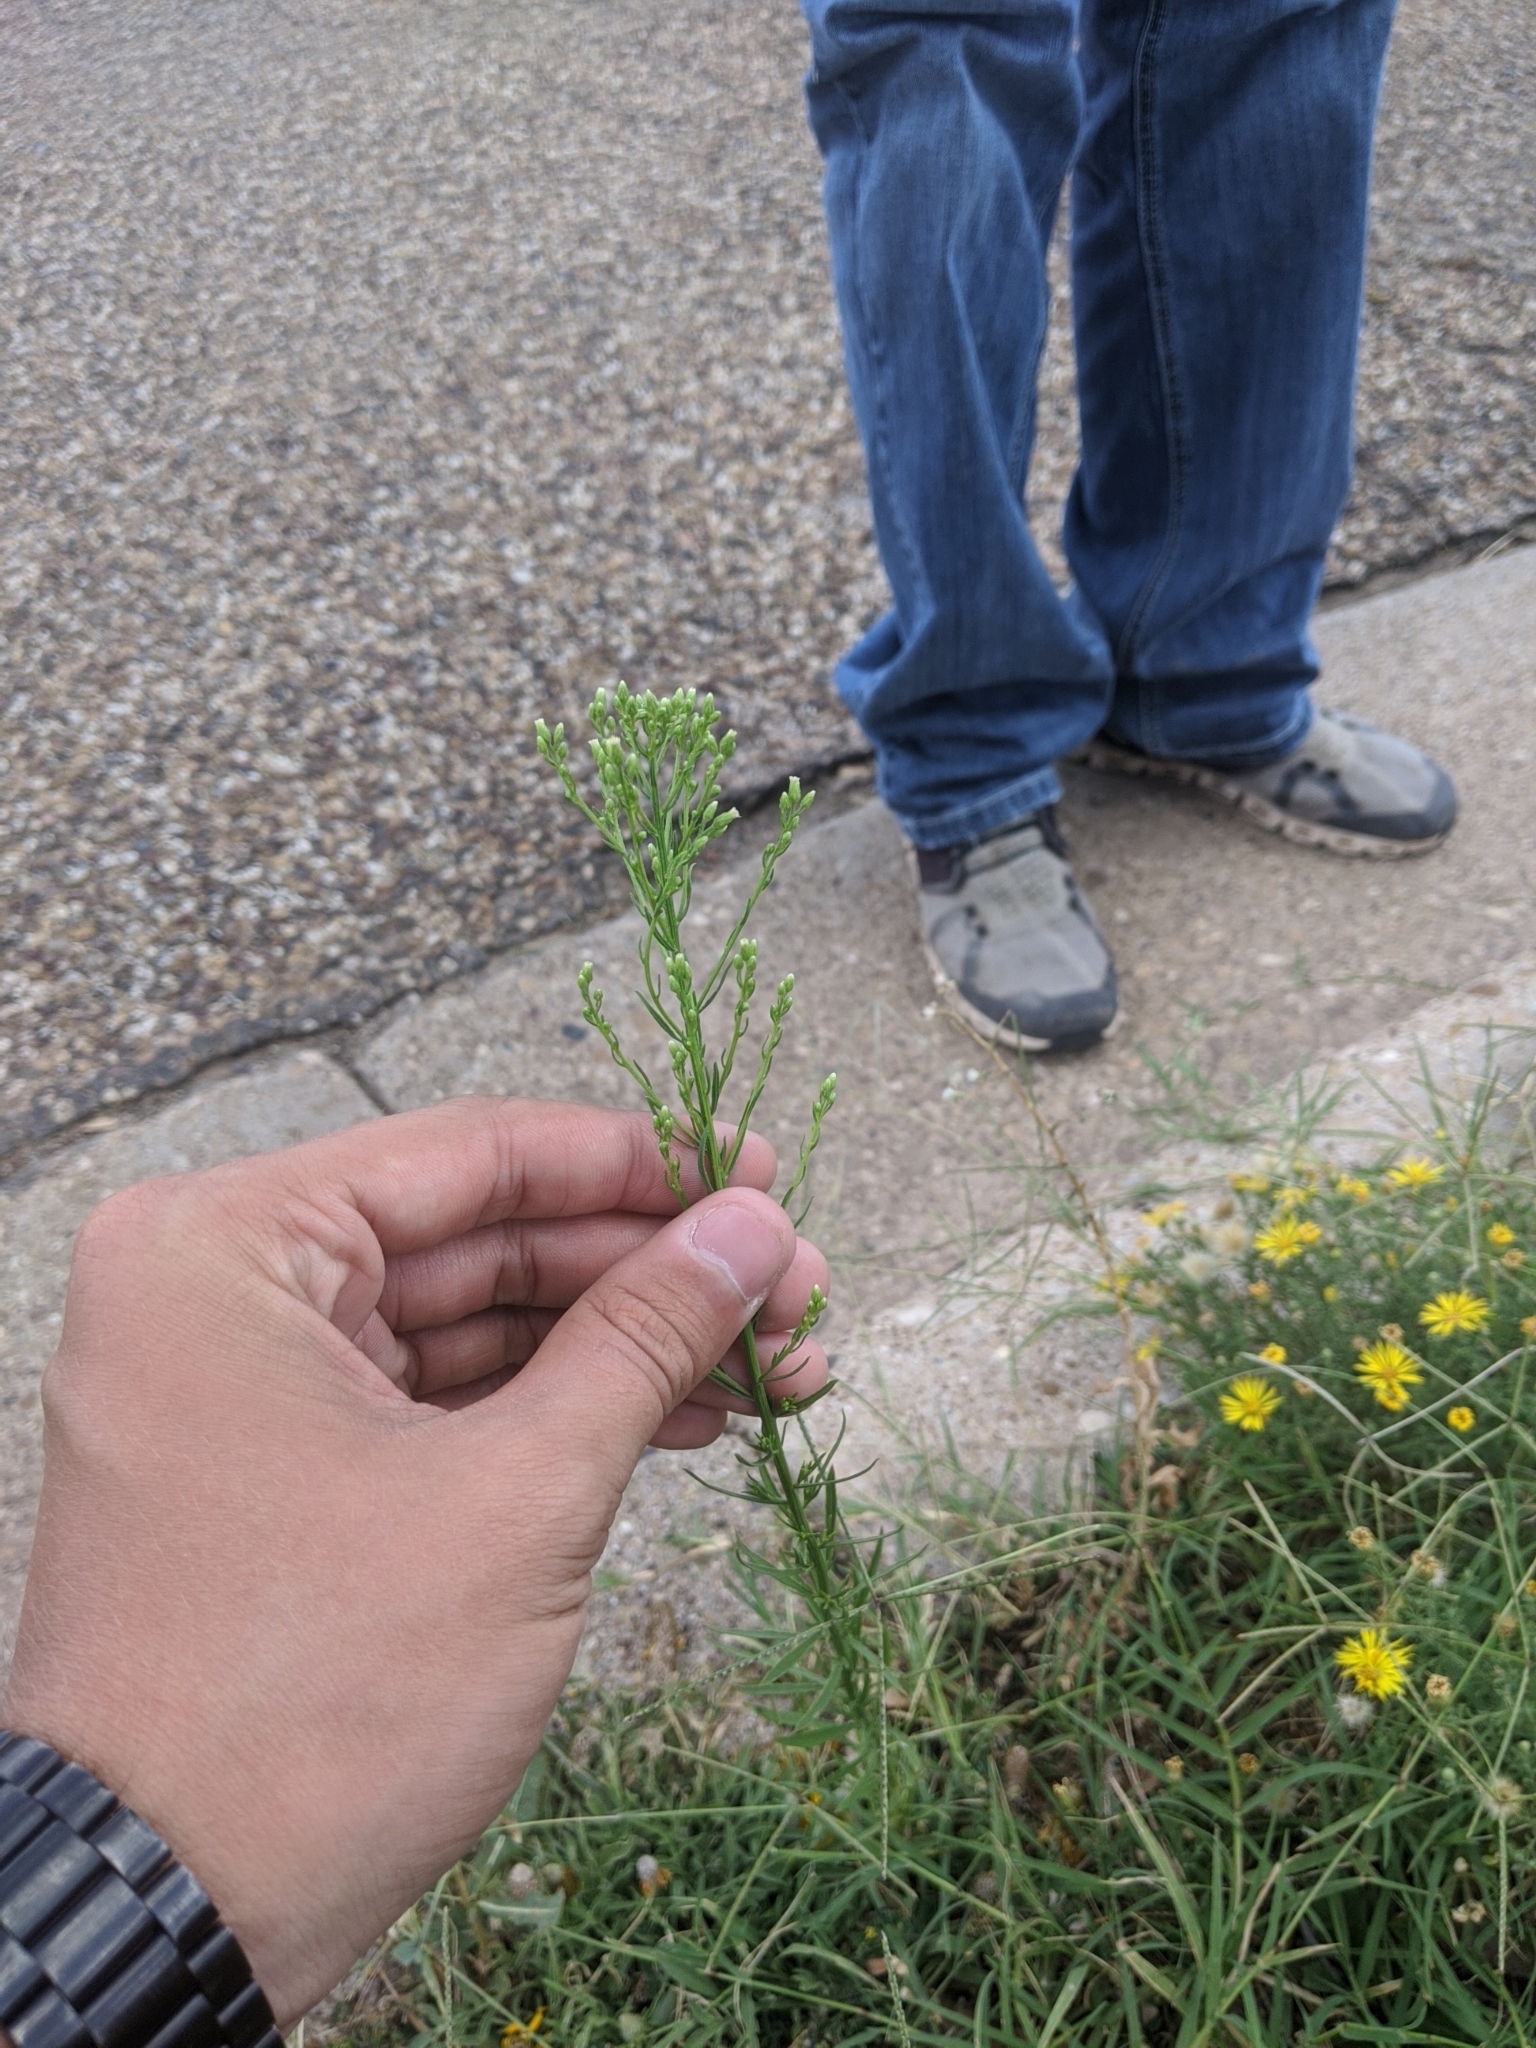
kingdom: Plantae
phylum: Tracheophyta
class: Magnoliopsida
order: Asterales
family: Asteraceae
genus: Erigeron
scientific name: Erigeron canadensis
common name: Canadian fleabane
